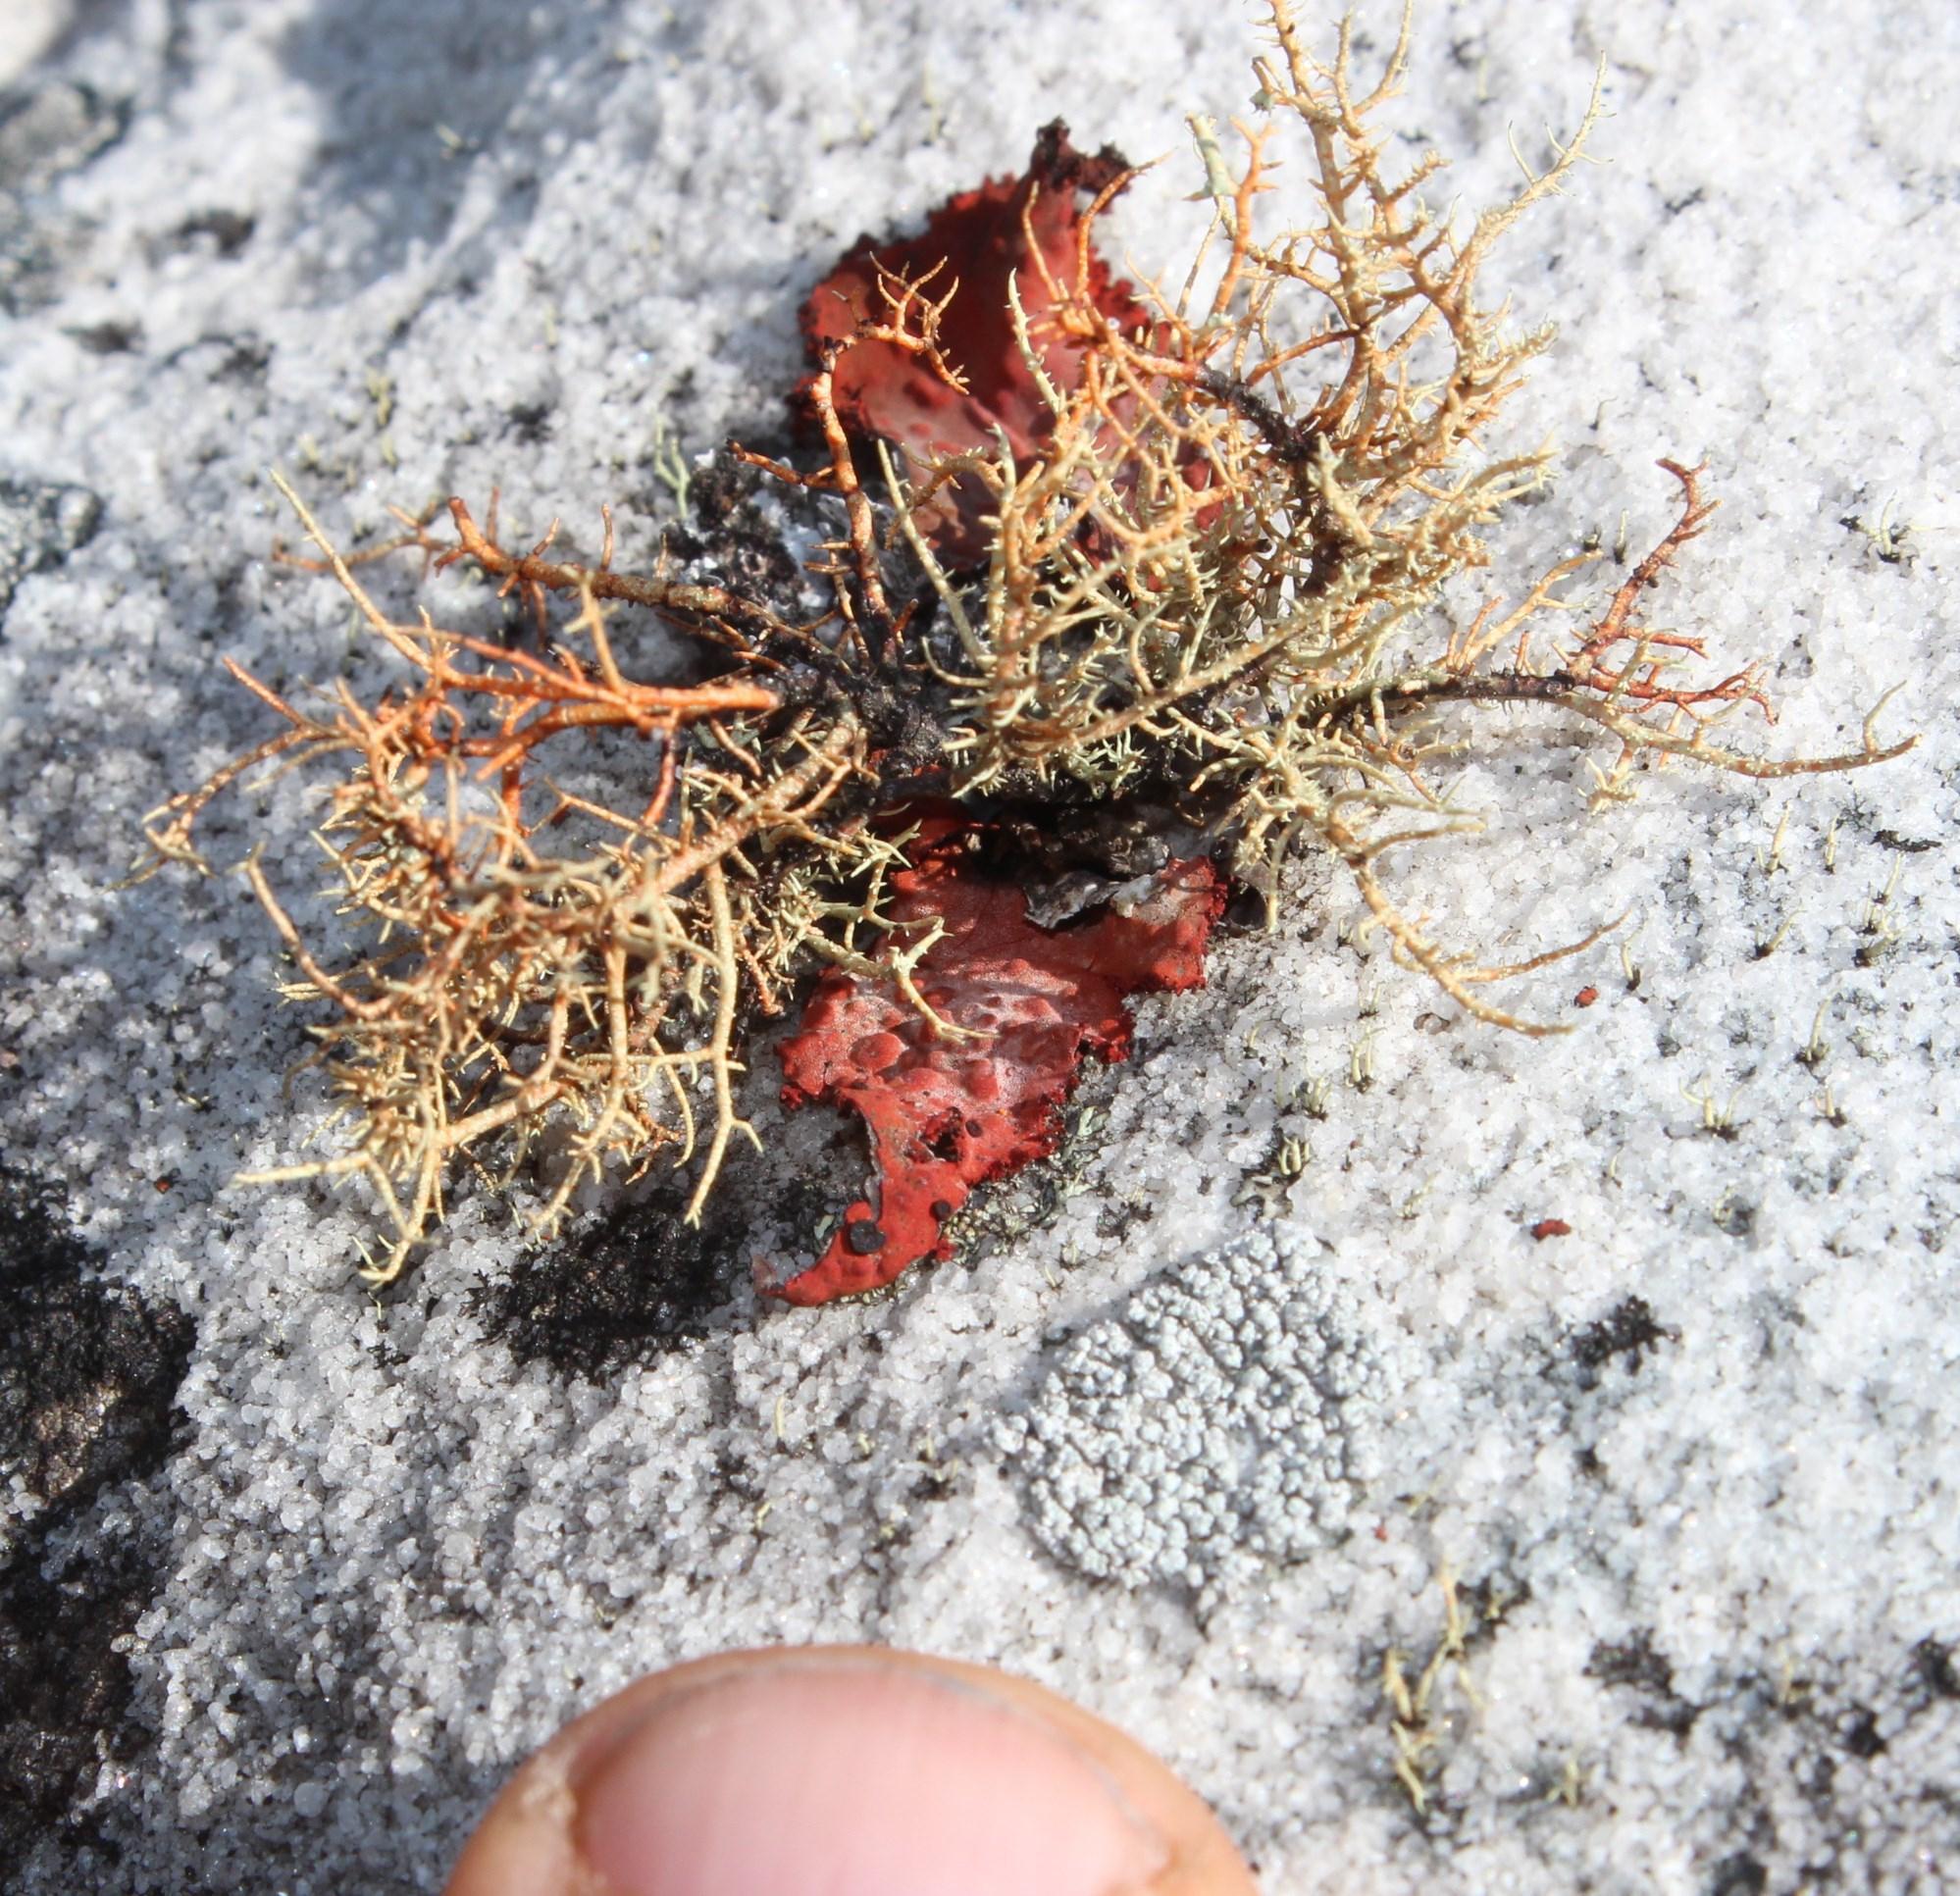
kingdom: Fungi
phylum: Ascomycota
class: Lecanoromycetes
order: Umbilicariales
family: Umbilicariaceae
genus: Lasallia
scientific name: Lasallia rubiginosa
